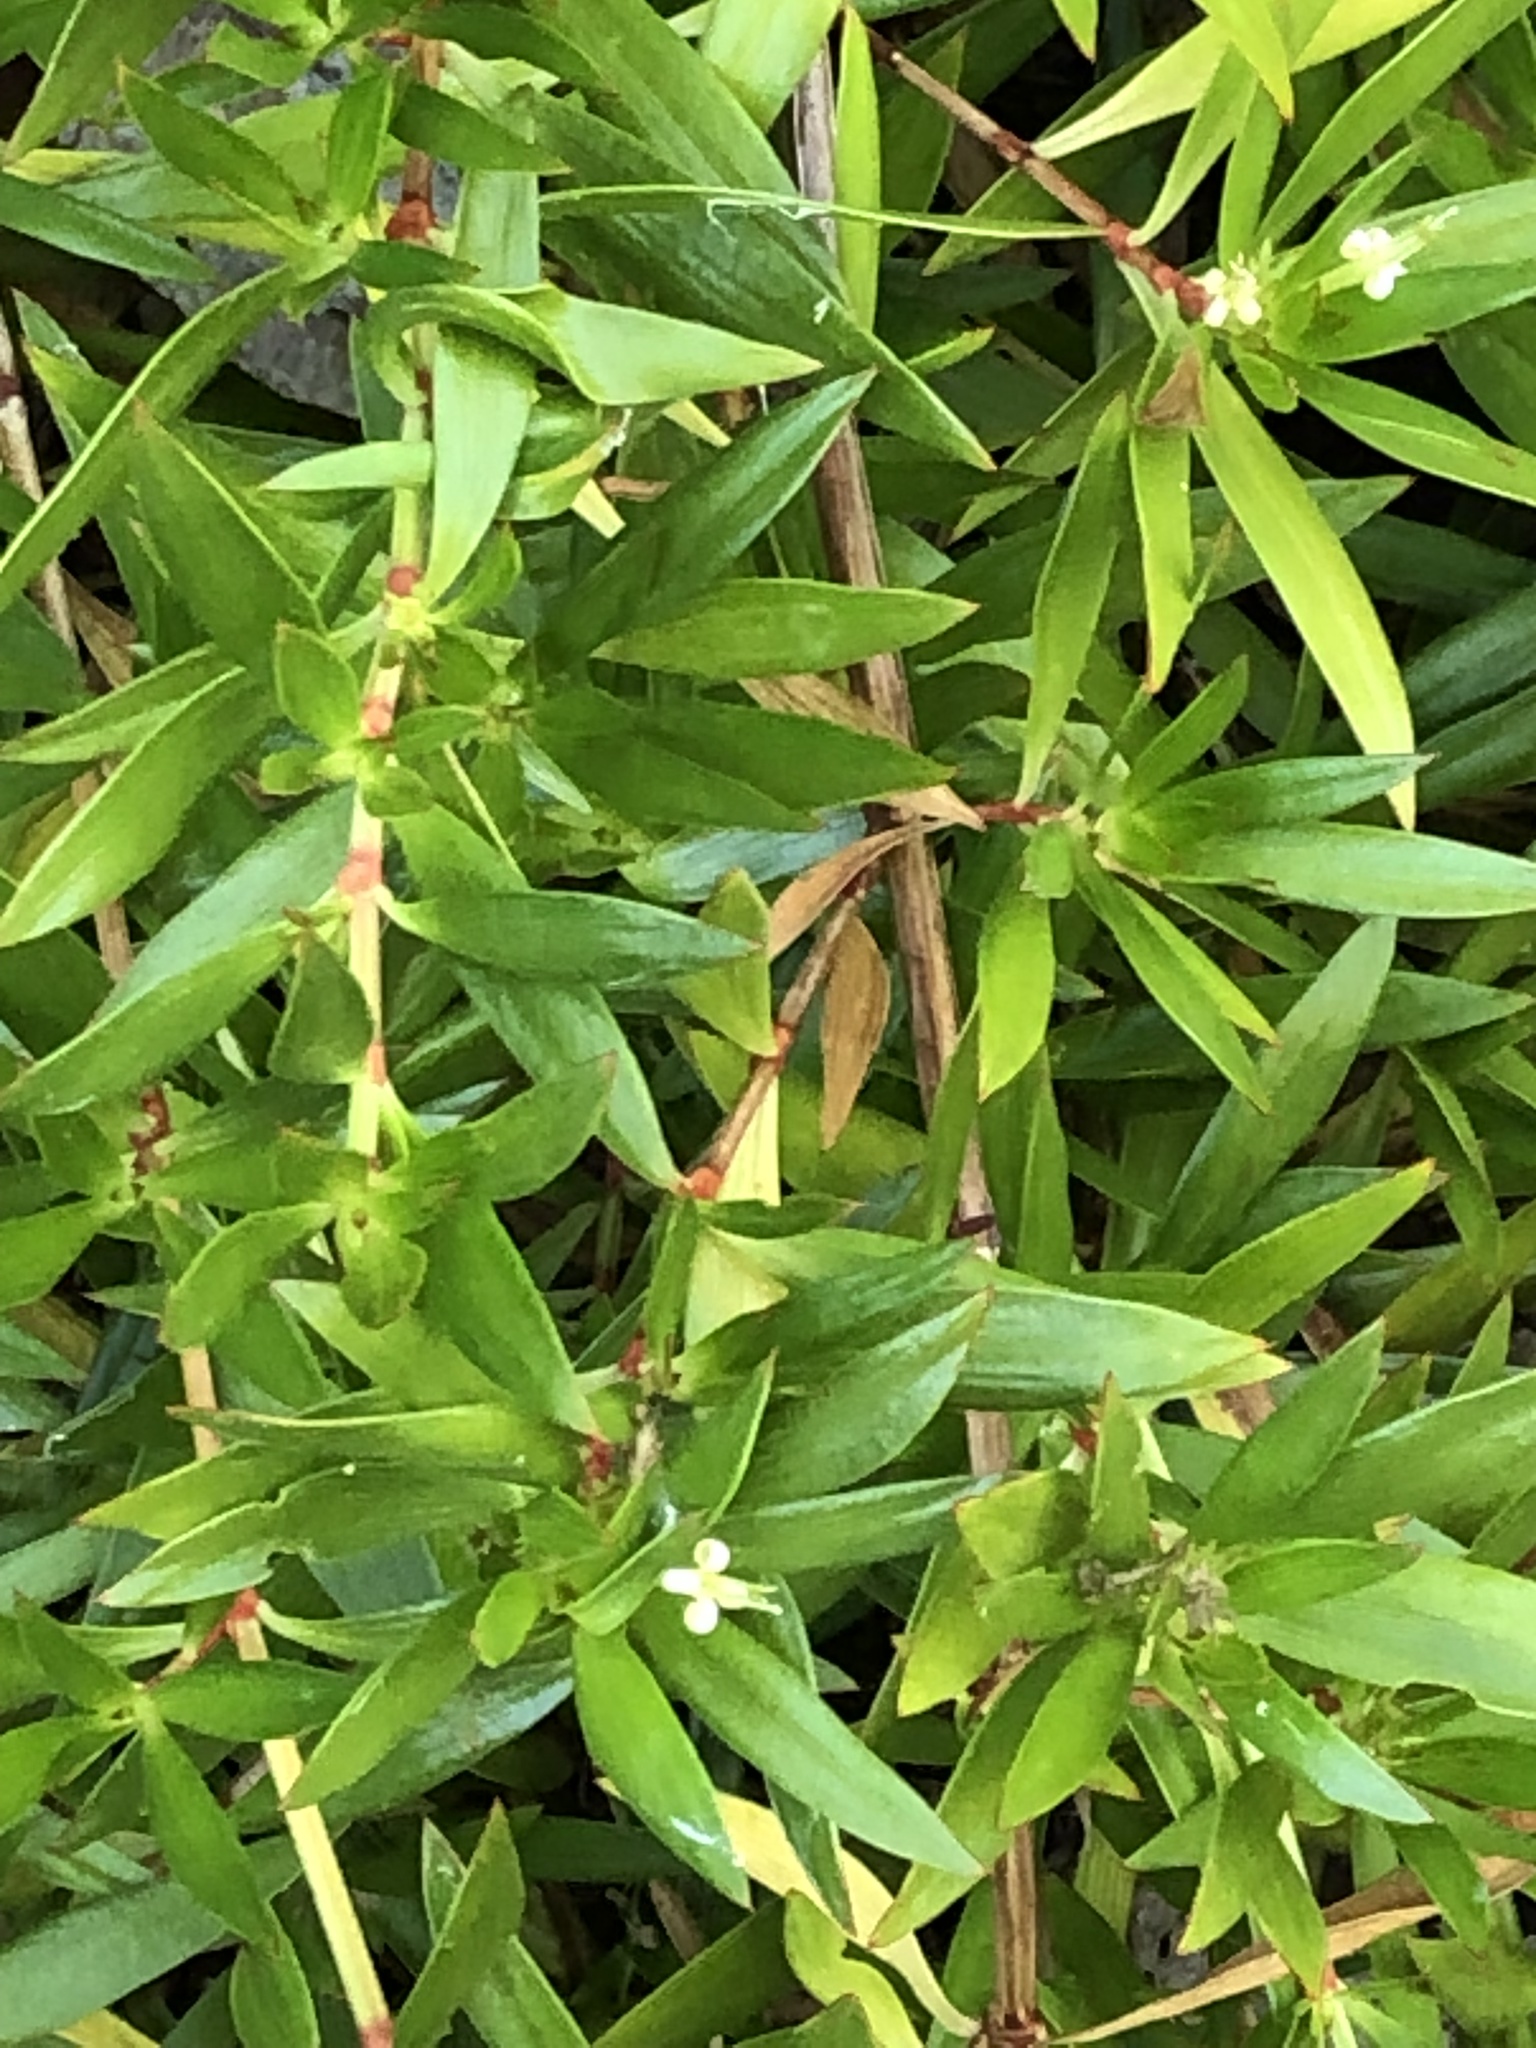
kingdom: Plantae
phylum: Tracheophyta
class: Magnoliopsida
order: Gentianales
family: Rubiaceae
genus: Ernodea
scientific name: Ernodea littoralis
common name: Beach creeper
